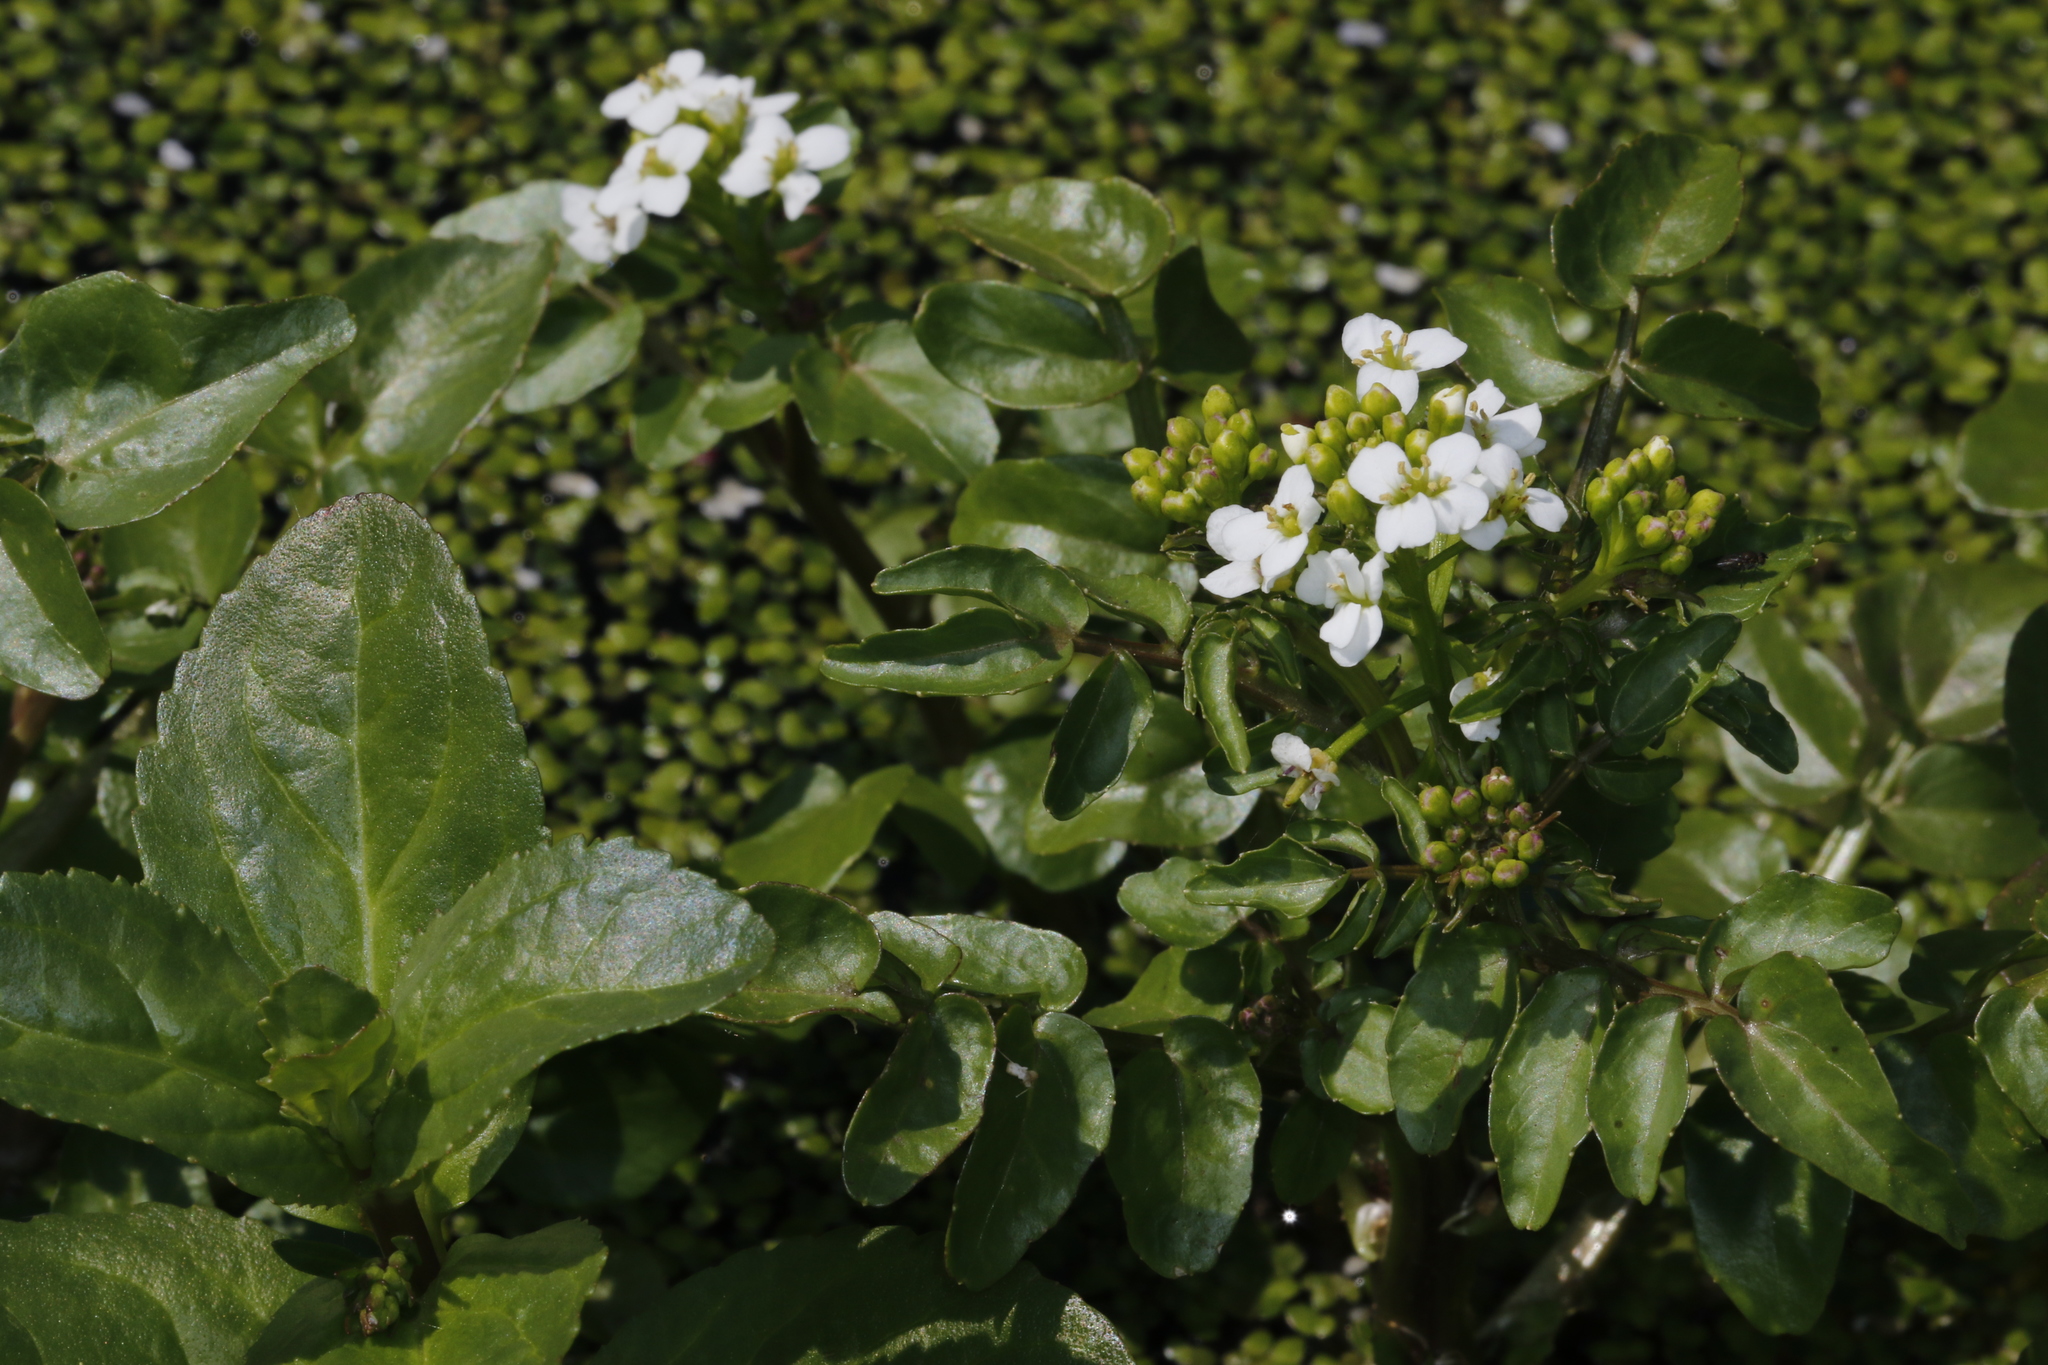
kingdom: Plantae
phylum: Tracheophyta
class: Magnoliopsida
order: Brassicales
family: Brassicaceae
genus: Nasturtium
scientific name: Nasturtium officinale
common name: Watercress
